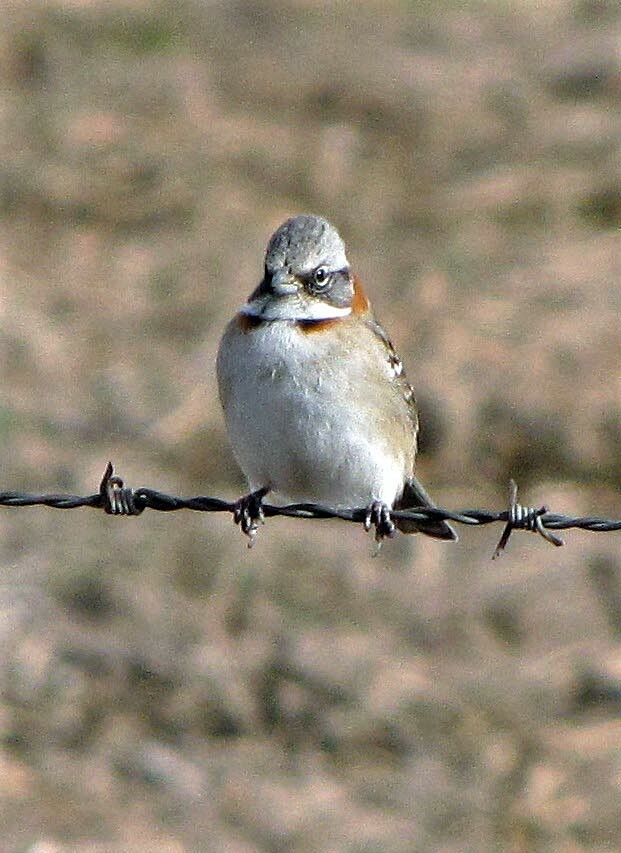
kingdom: Animalia
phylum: Chordata
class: Aves
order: Passeriformes
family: Passerellidae
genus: Zonotrichia
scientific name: Zonotrichia capensis
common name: Rufous-collared sparrow
